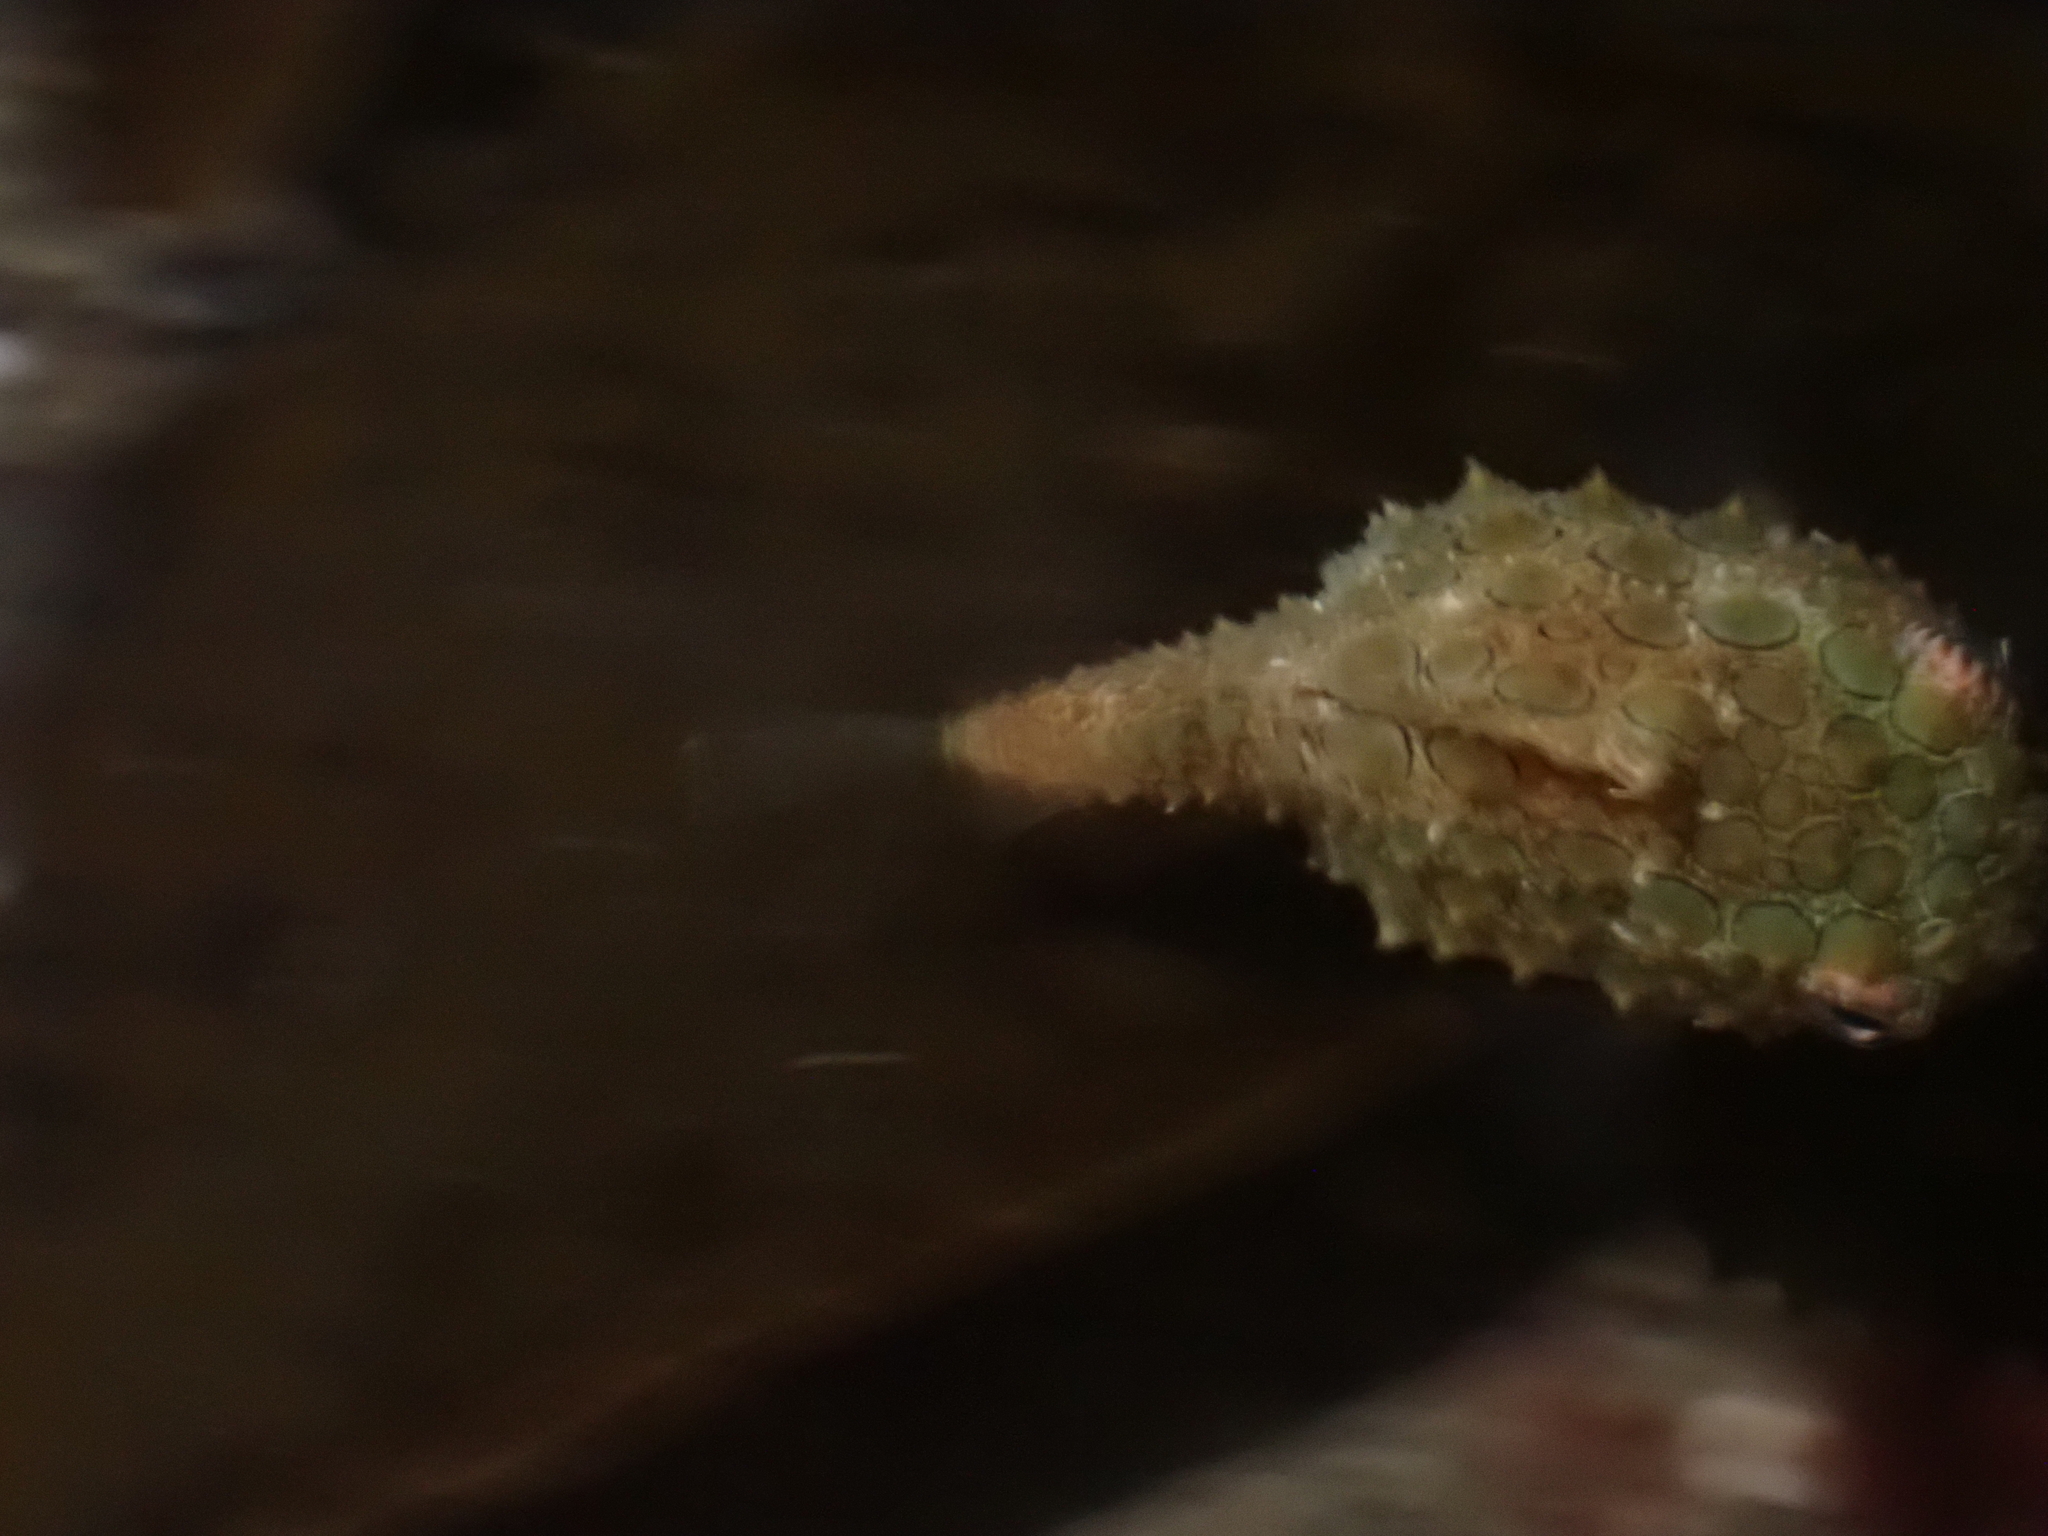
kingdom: Animalia
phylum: Chordata
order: Scorpaeniformes
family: Cyclopteridae
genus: Eumicrotremus
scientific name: Eumicrotremus orbis
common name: Pacific spiny lumpsucker
